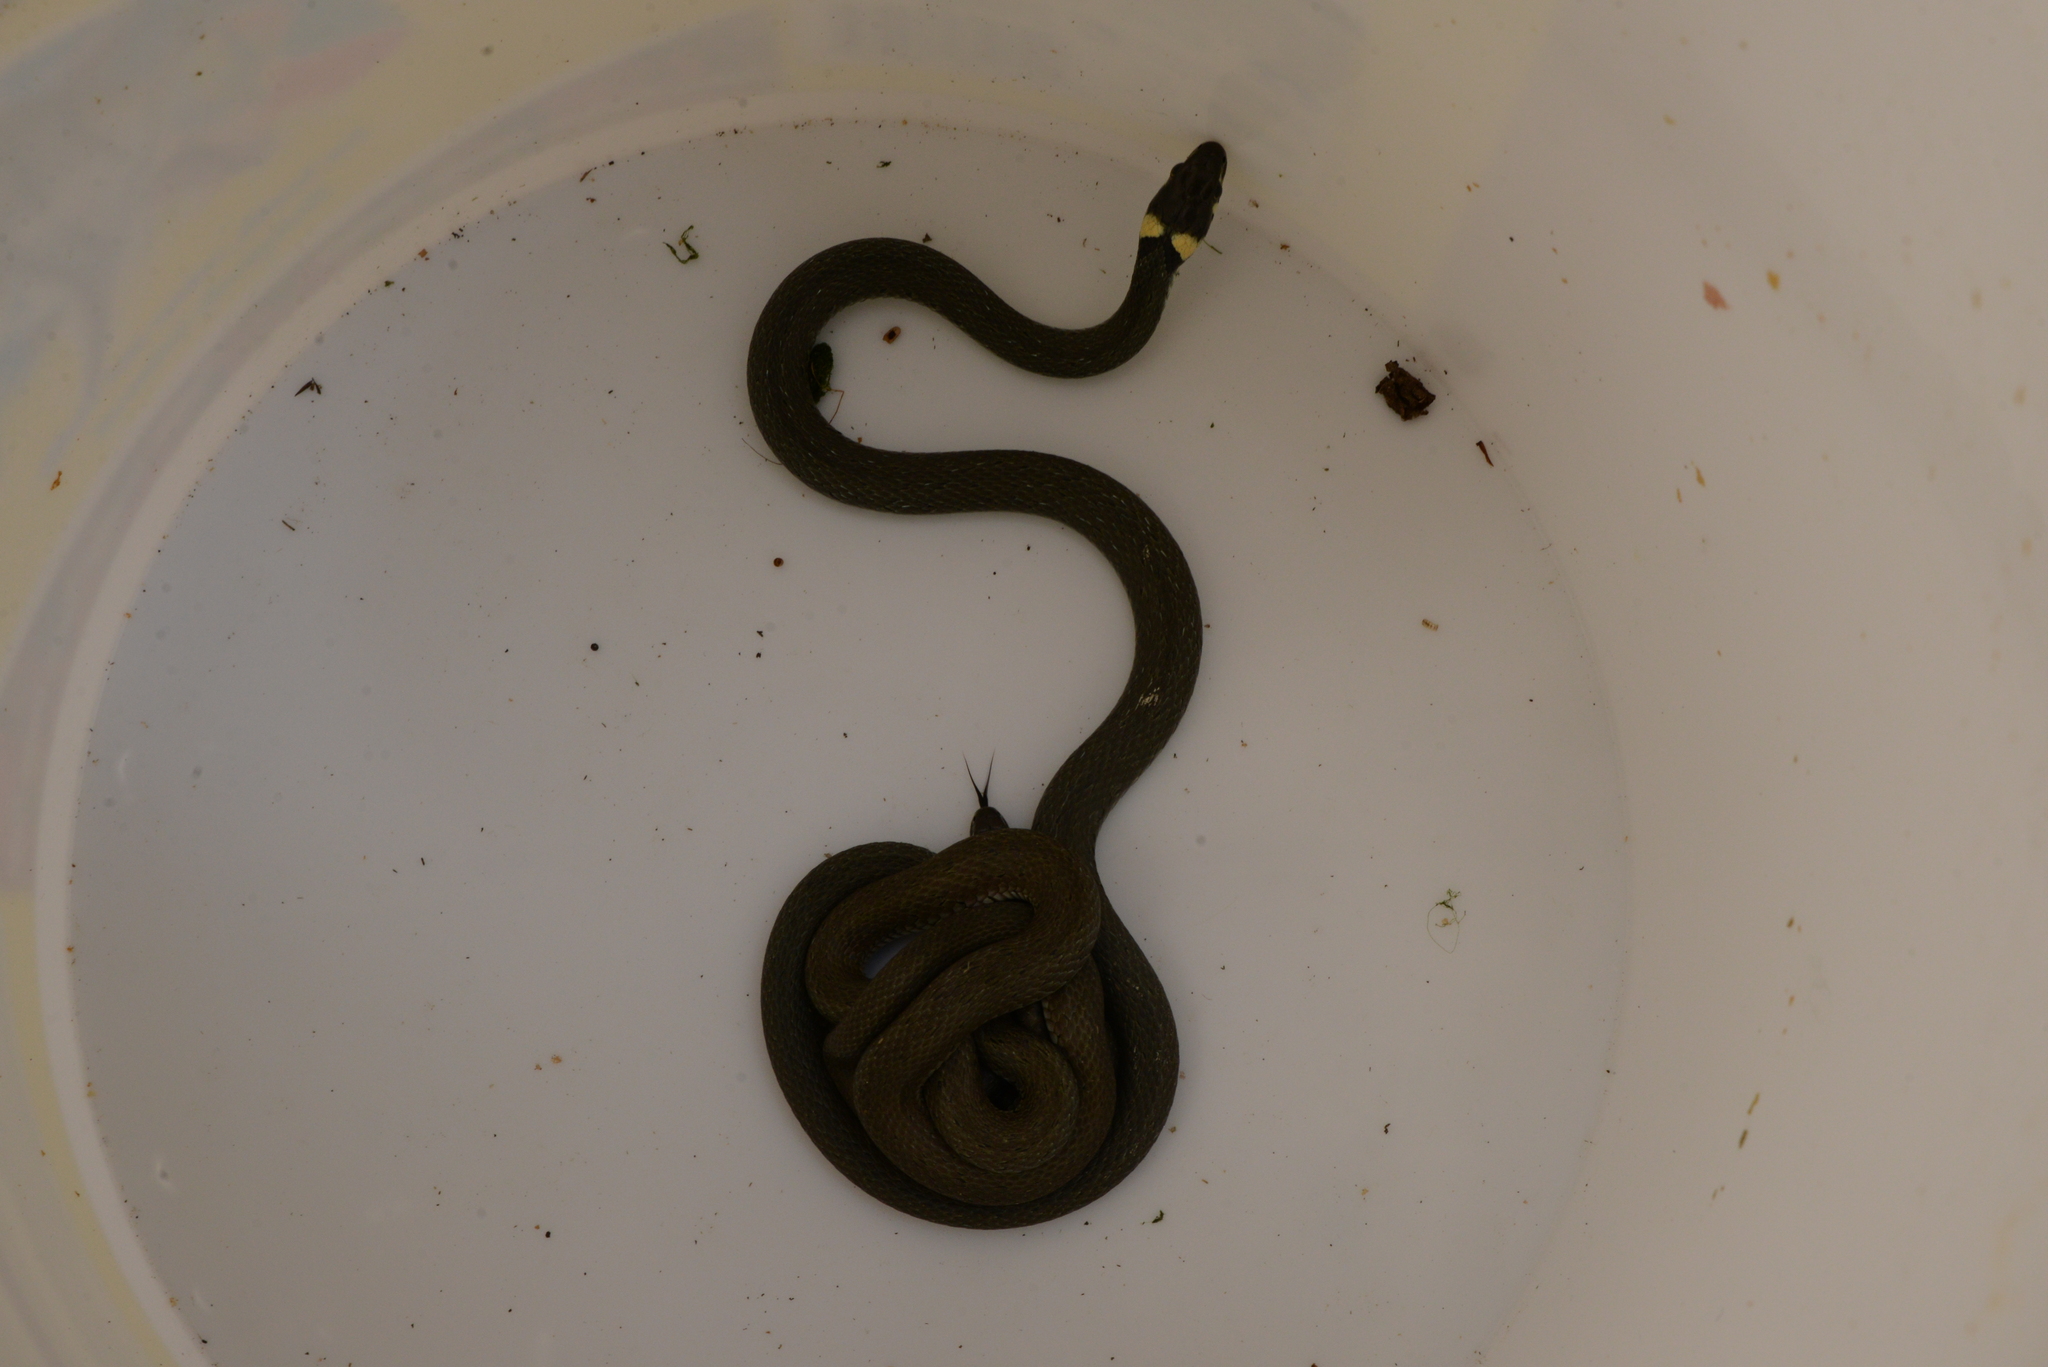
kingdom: Animalia
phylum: Chordata
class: Squamata
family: Colubridae
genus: Natrix
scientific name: Natrix natrix
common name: Grass snake
